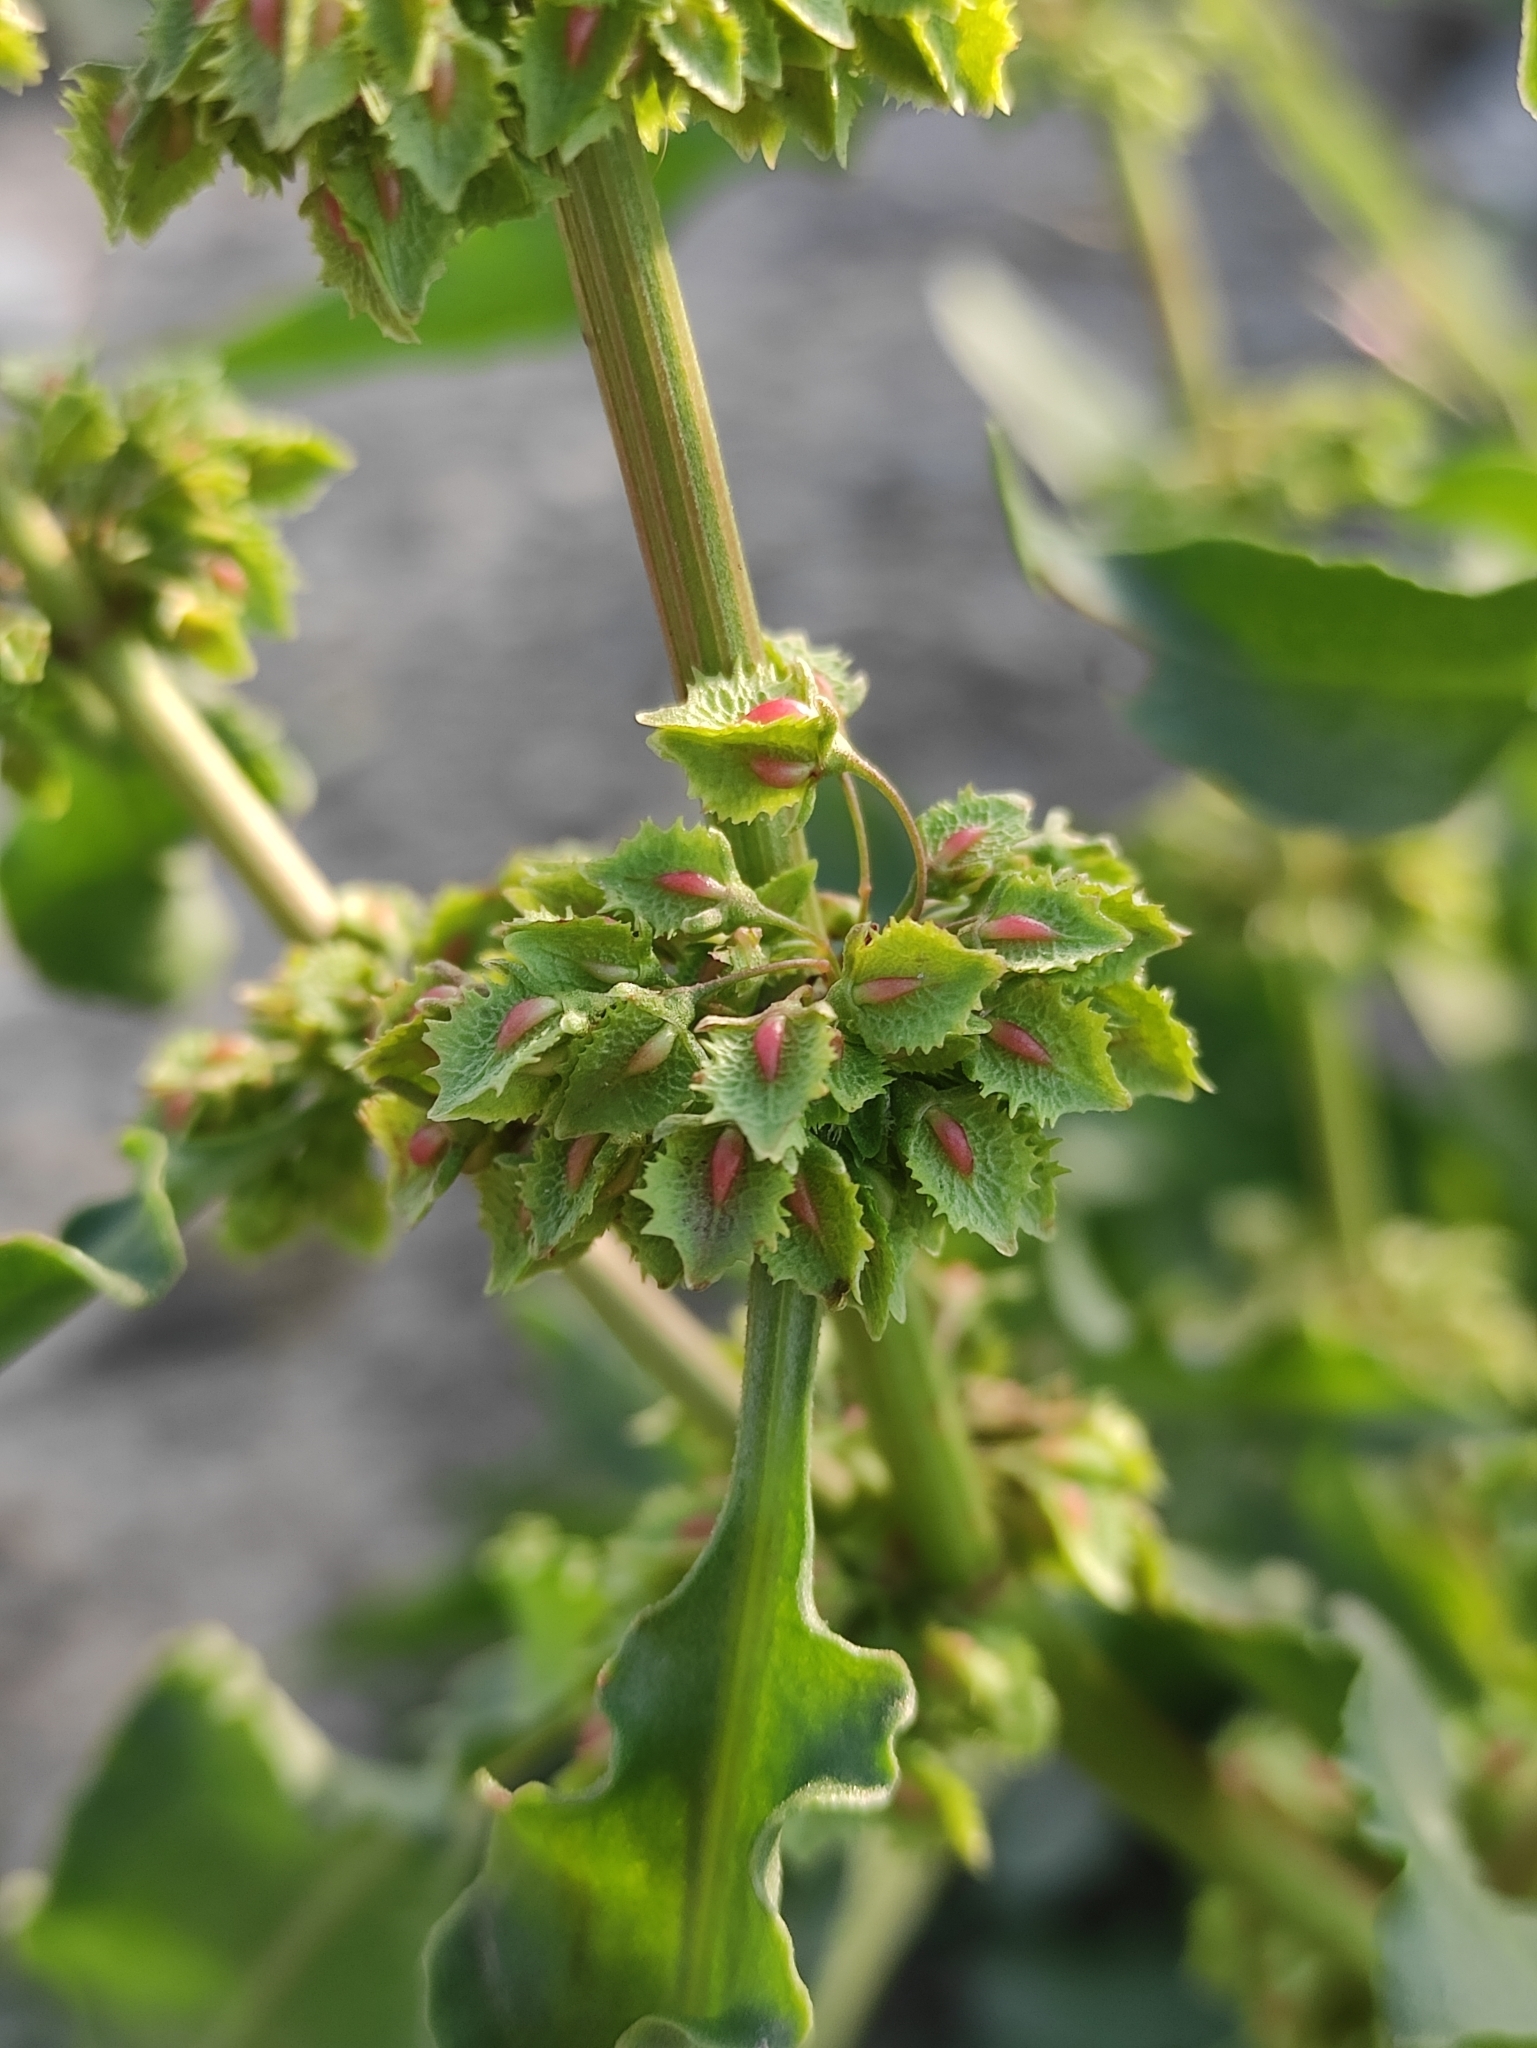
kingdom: Plantae
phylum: Tracheophyta
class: Magnoliopsida
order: Caryophyllales
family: Polygonaceae
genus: Rumex
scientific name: Rumex stenophyllus
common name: Narrowleaf dock
